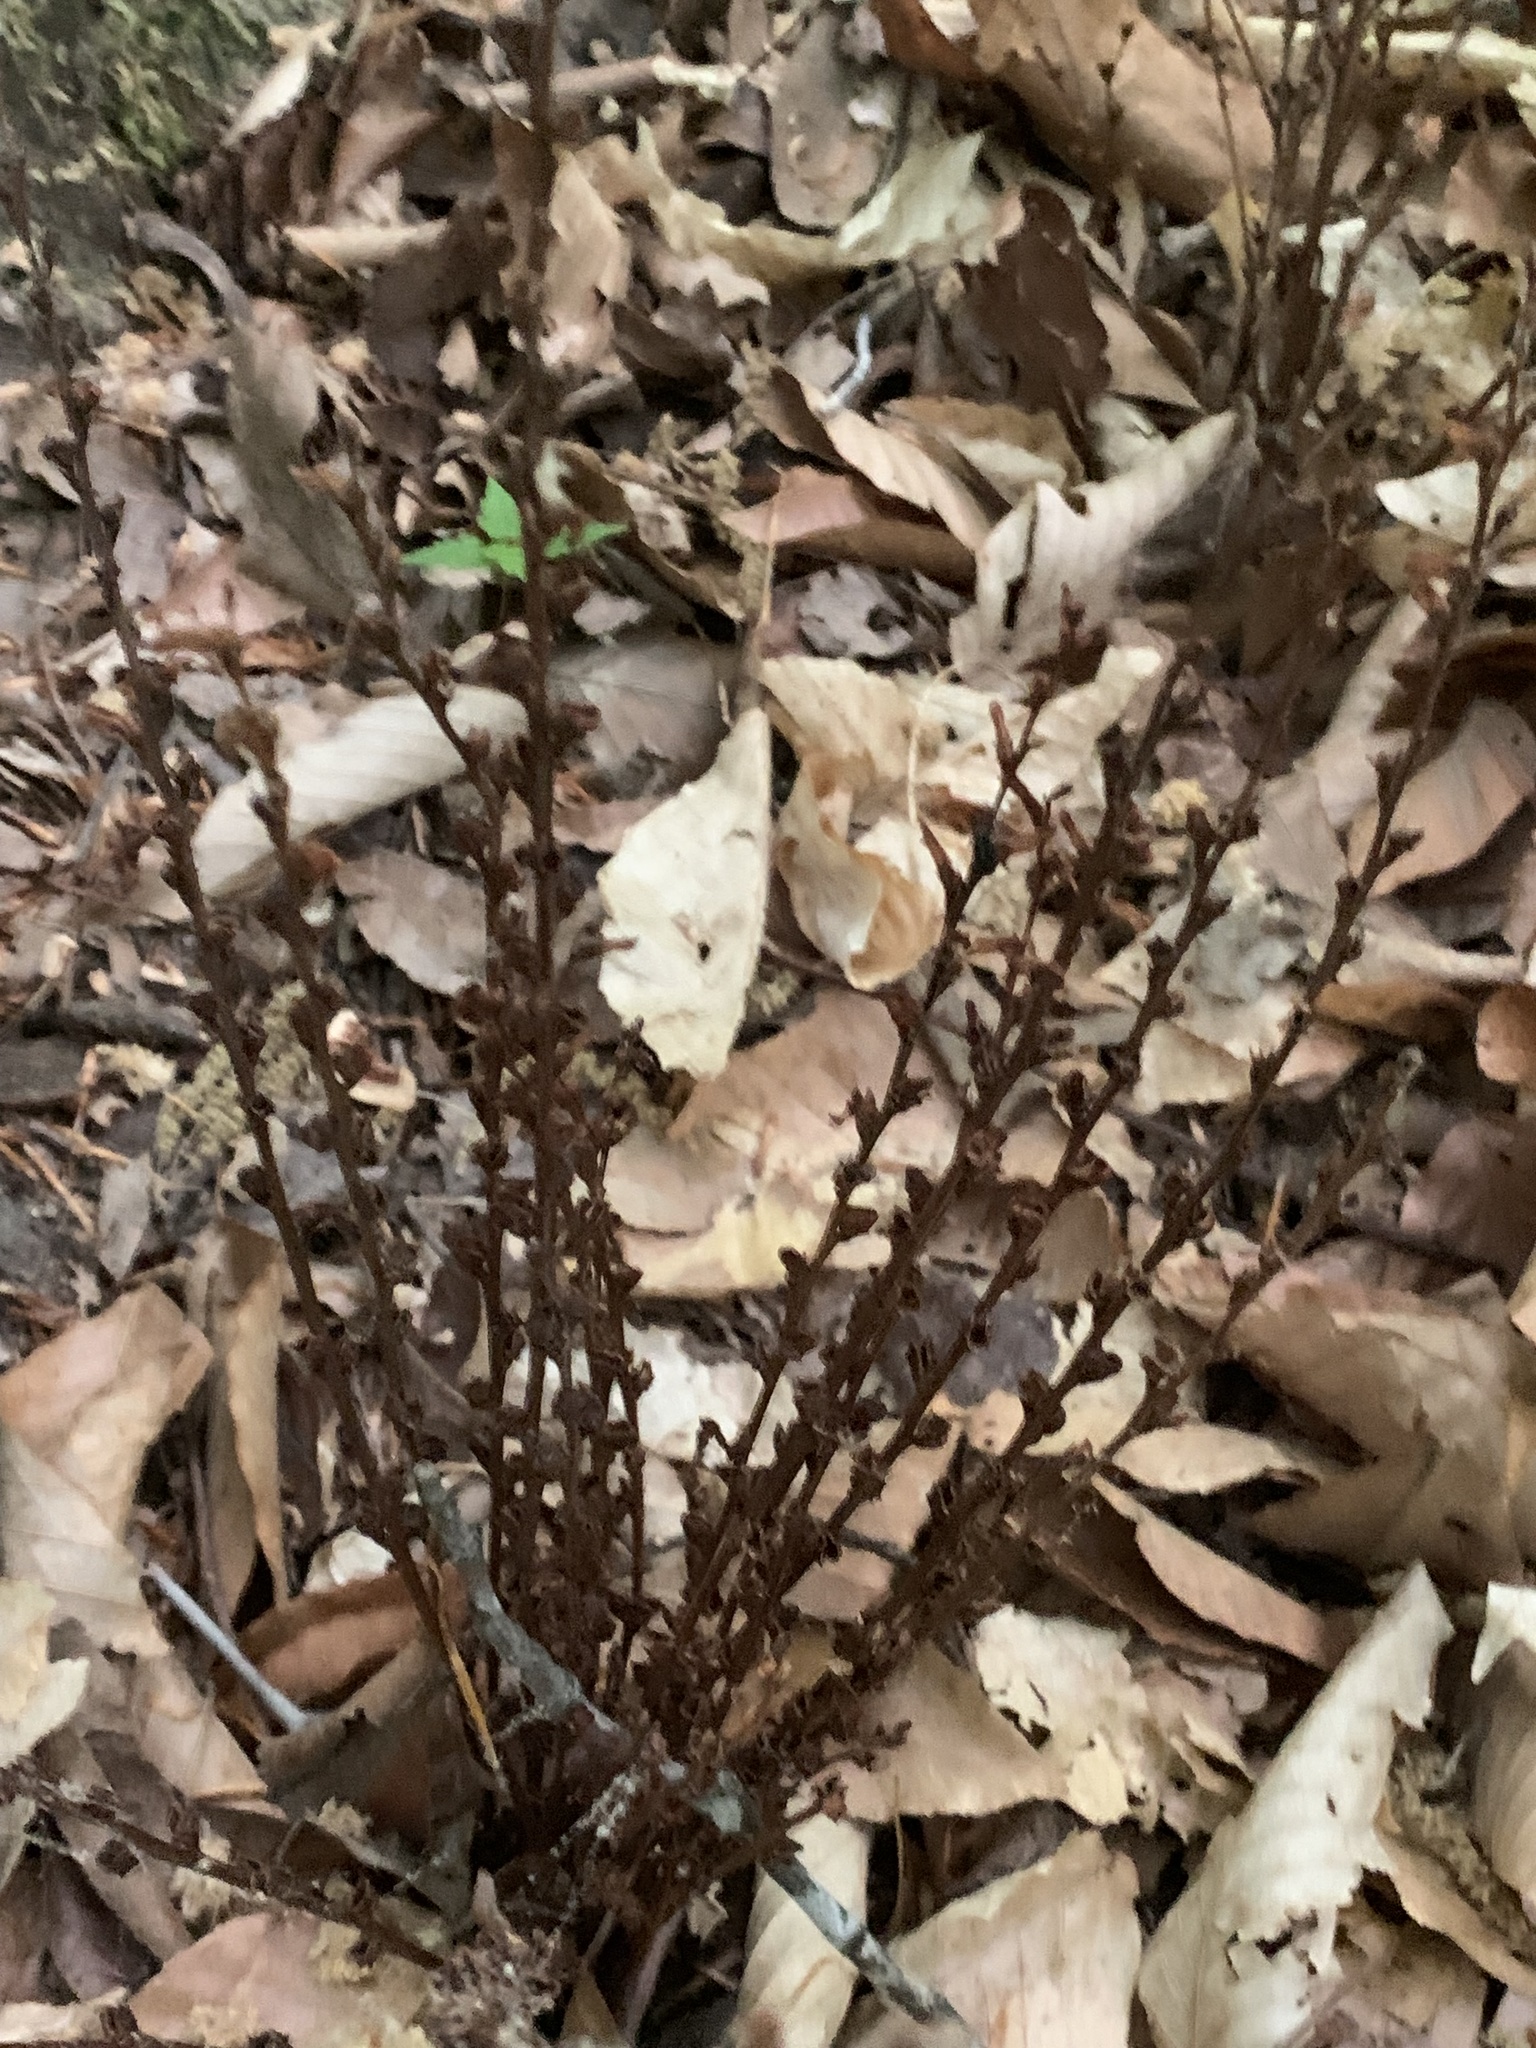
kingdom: Plantae
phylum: Tracheophyta
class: Magnoliopsida
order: Lamiales
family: Orobanchaceae
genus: Epifagus
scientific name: Epifagus virginiana
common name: Beechdrops
